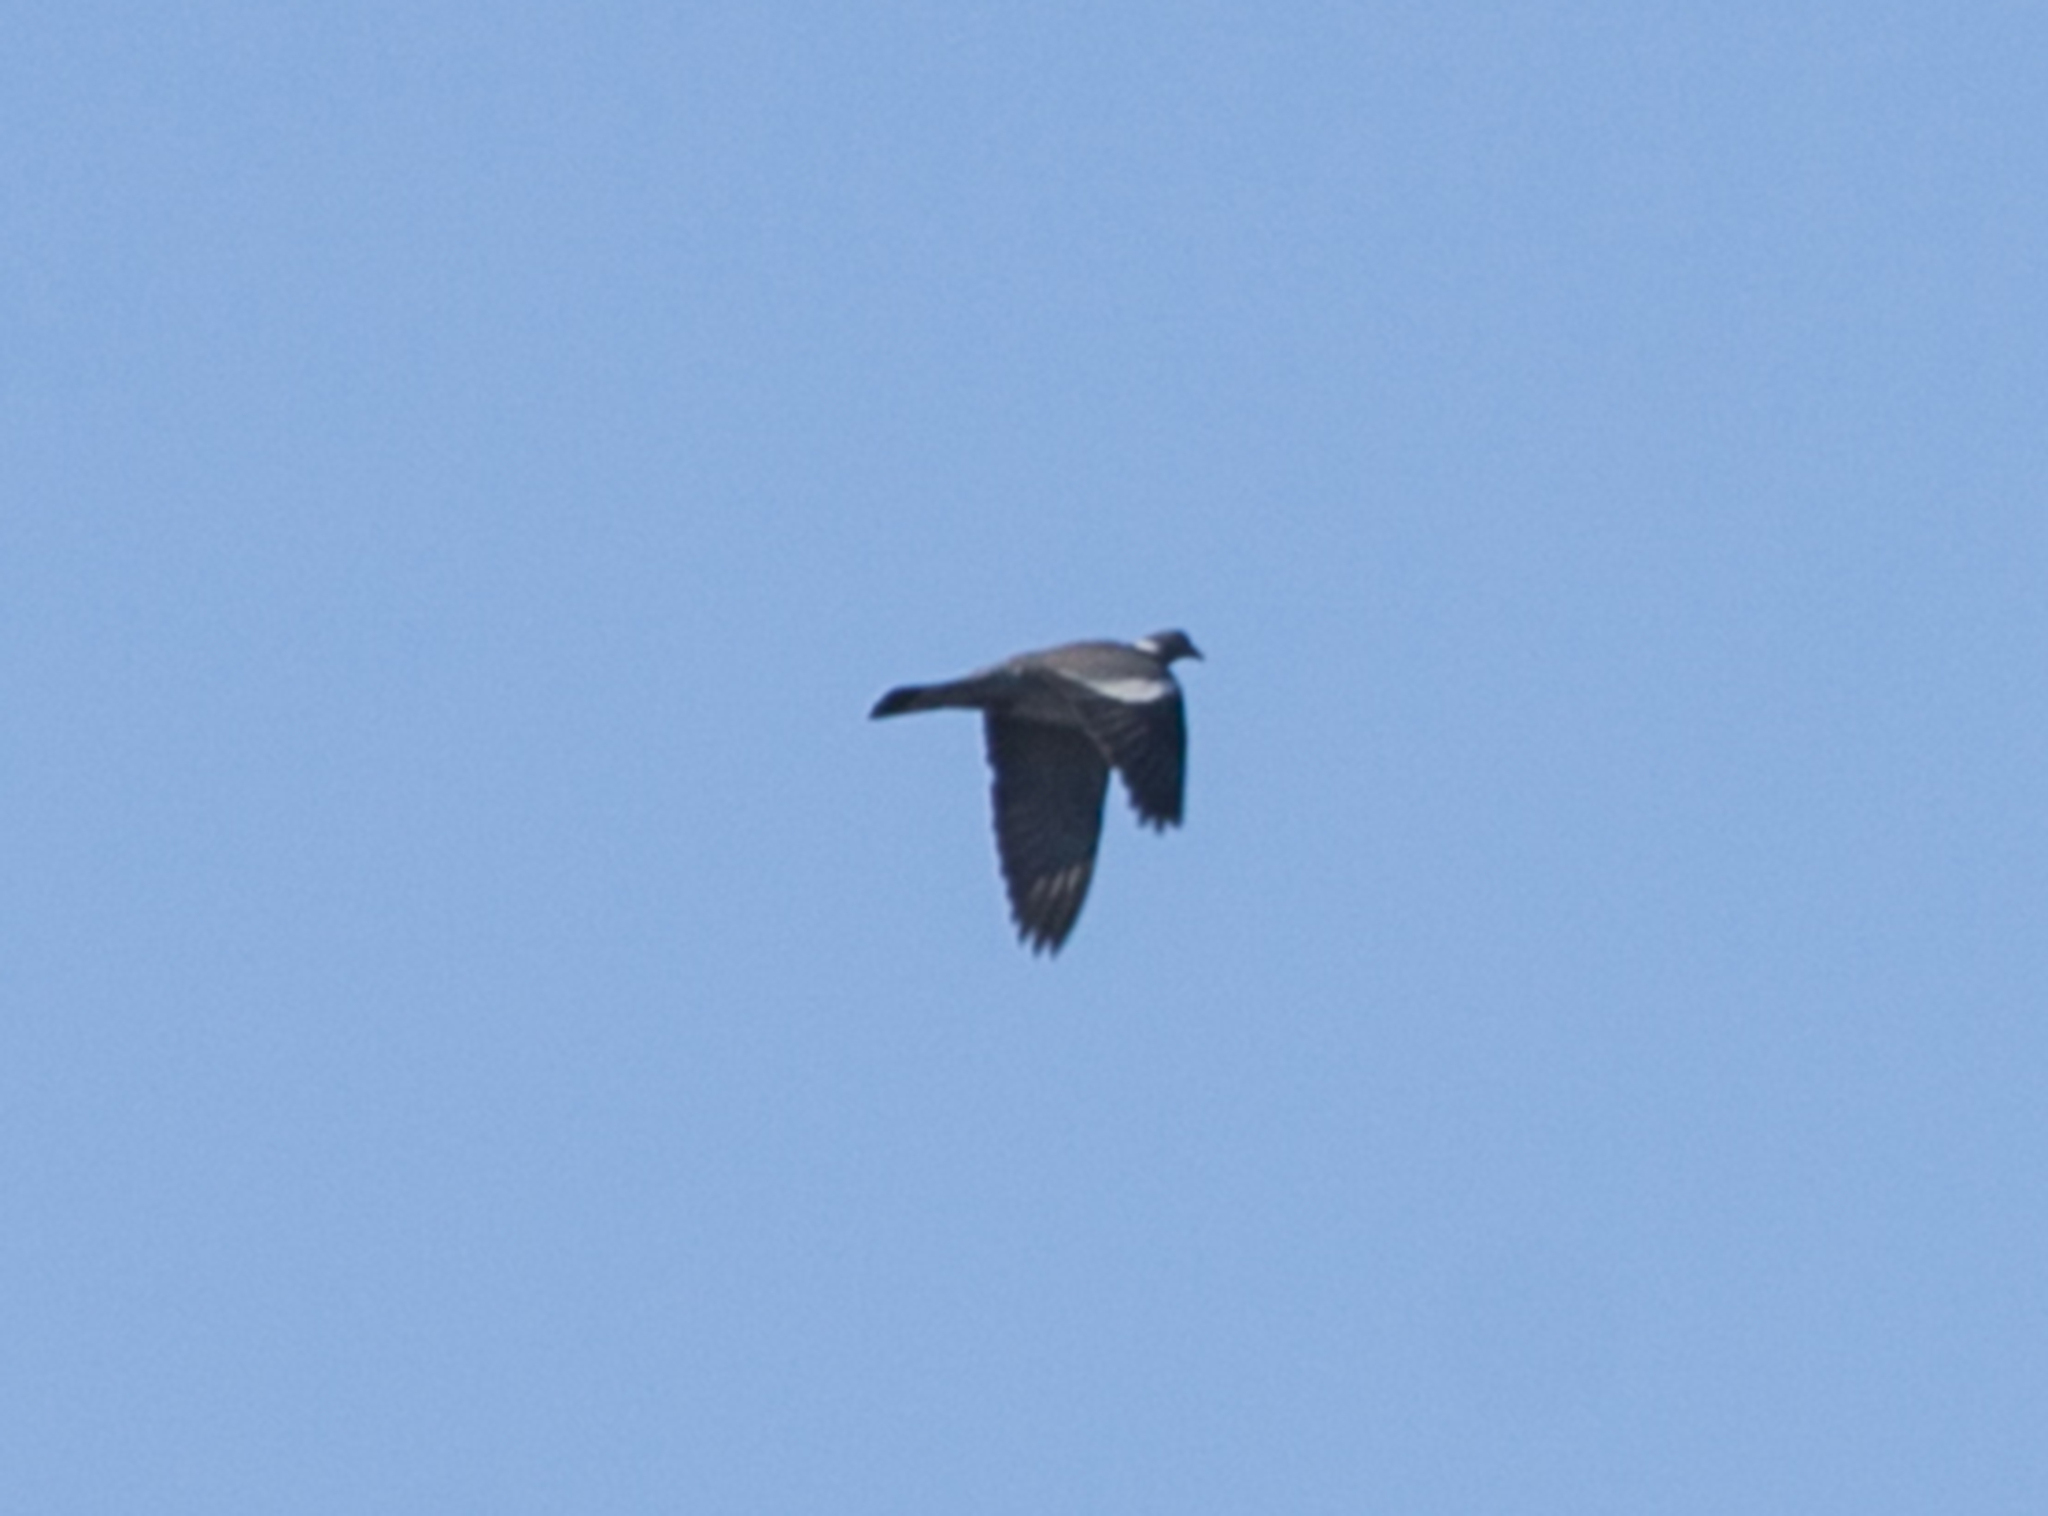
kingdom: Animalia
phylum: Chordata
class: Aves
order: Columbiformes
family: Columbidae
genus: Columba
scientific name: Columba palumbus
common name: Common wood pigeon
